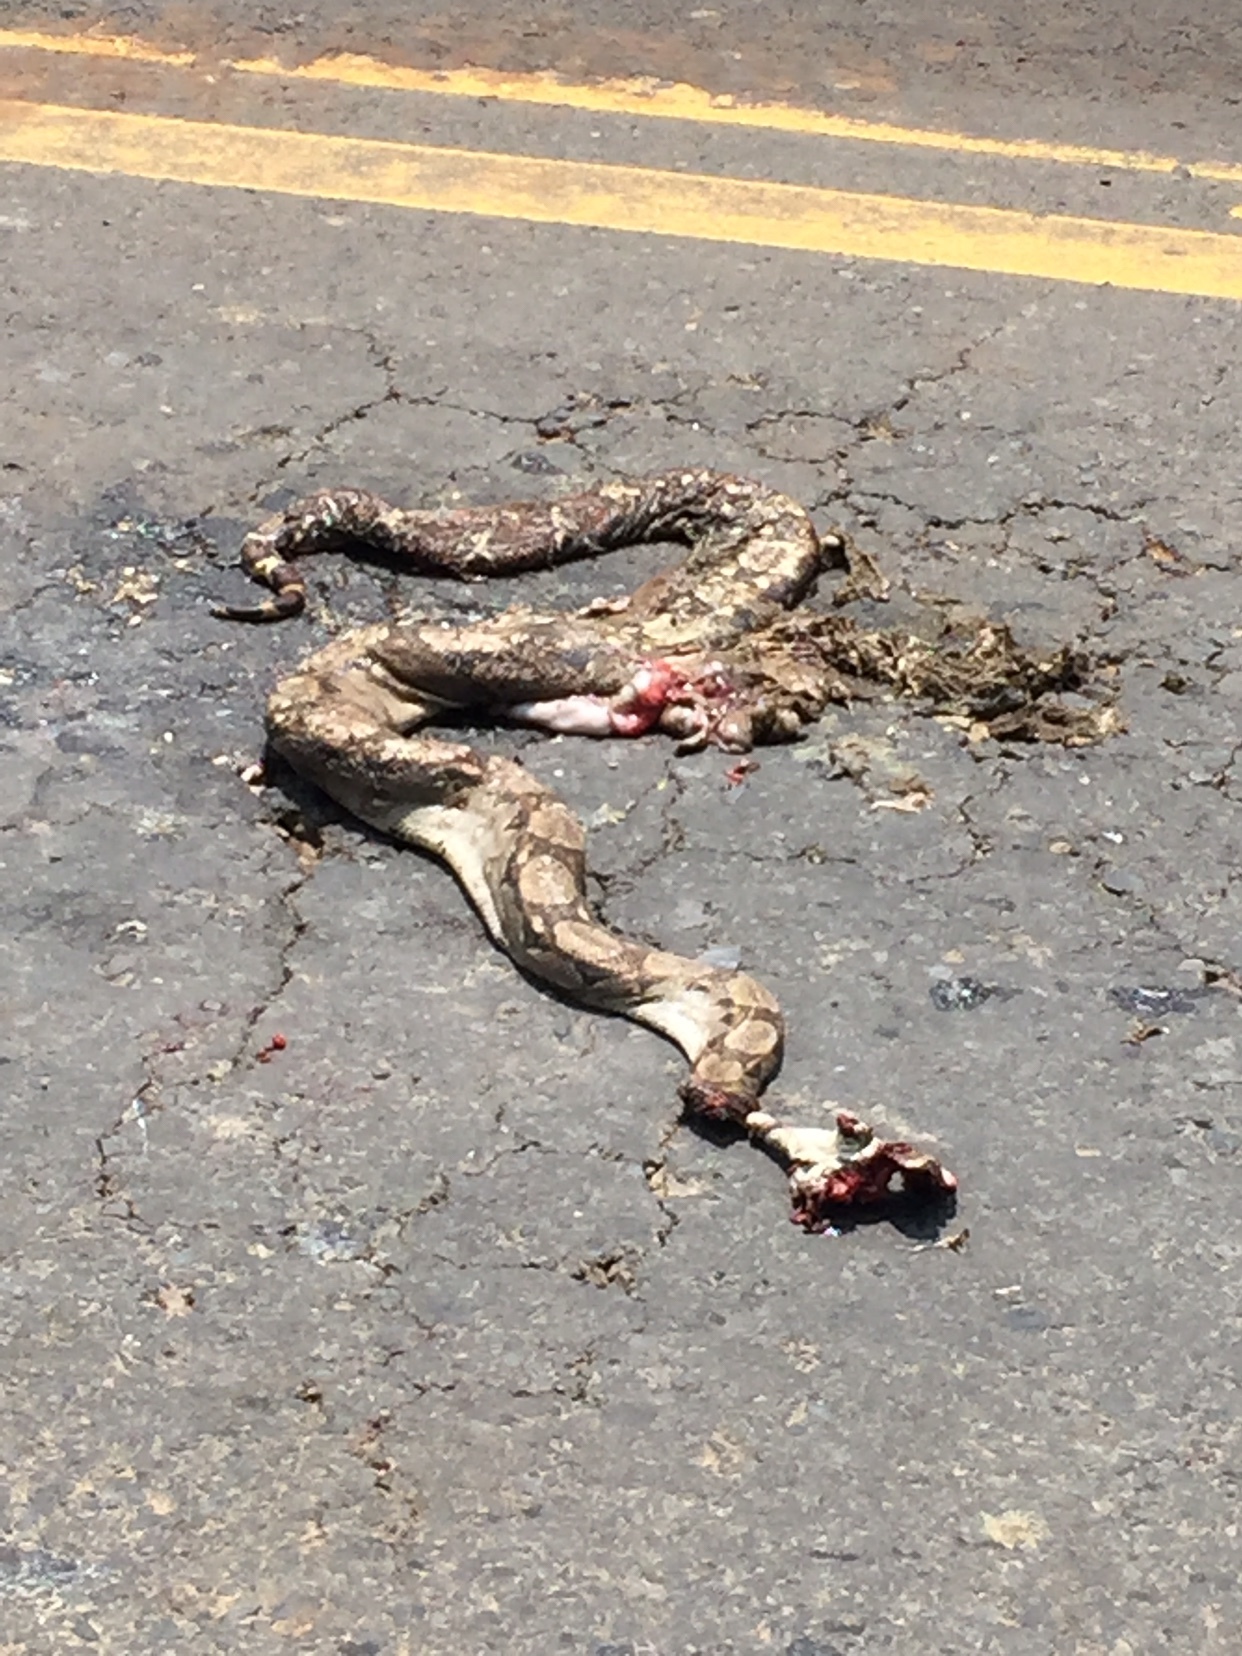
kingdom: Animalia
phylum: Chordata
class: Squamata
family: Boidae
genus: Boa
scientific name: Boa imperator
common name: Central american boa
